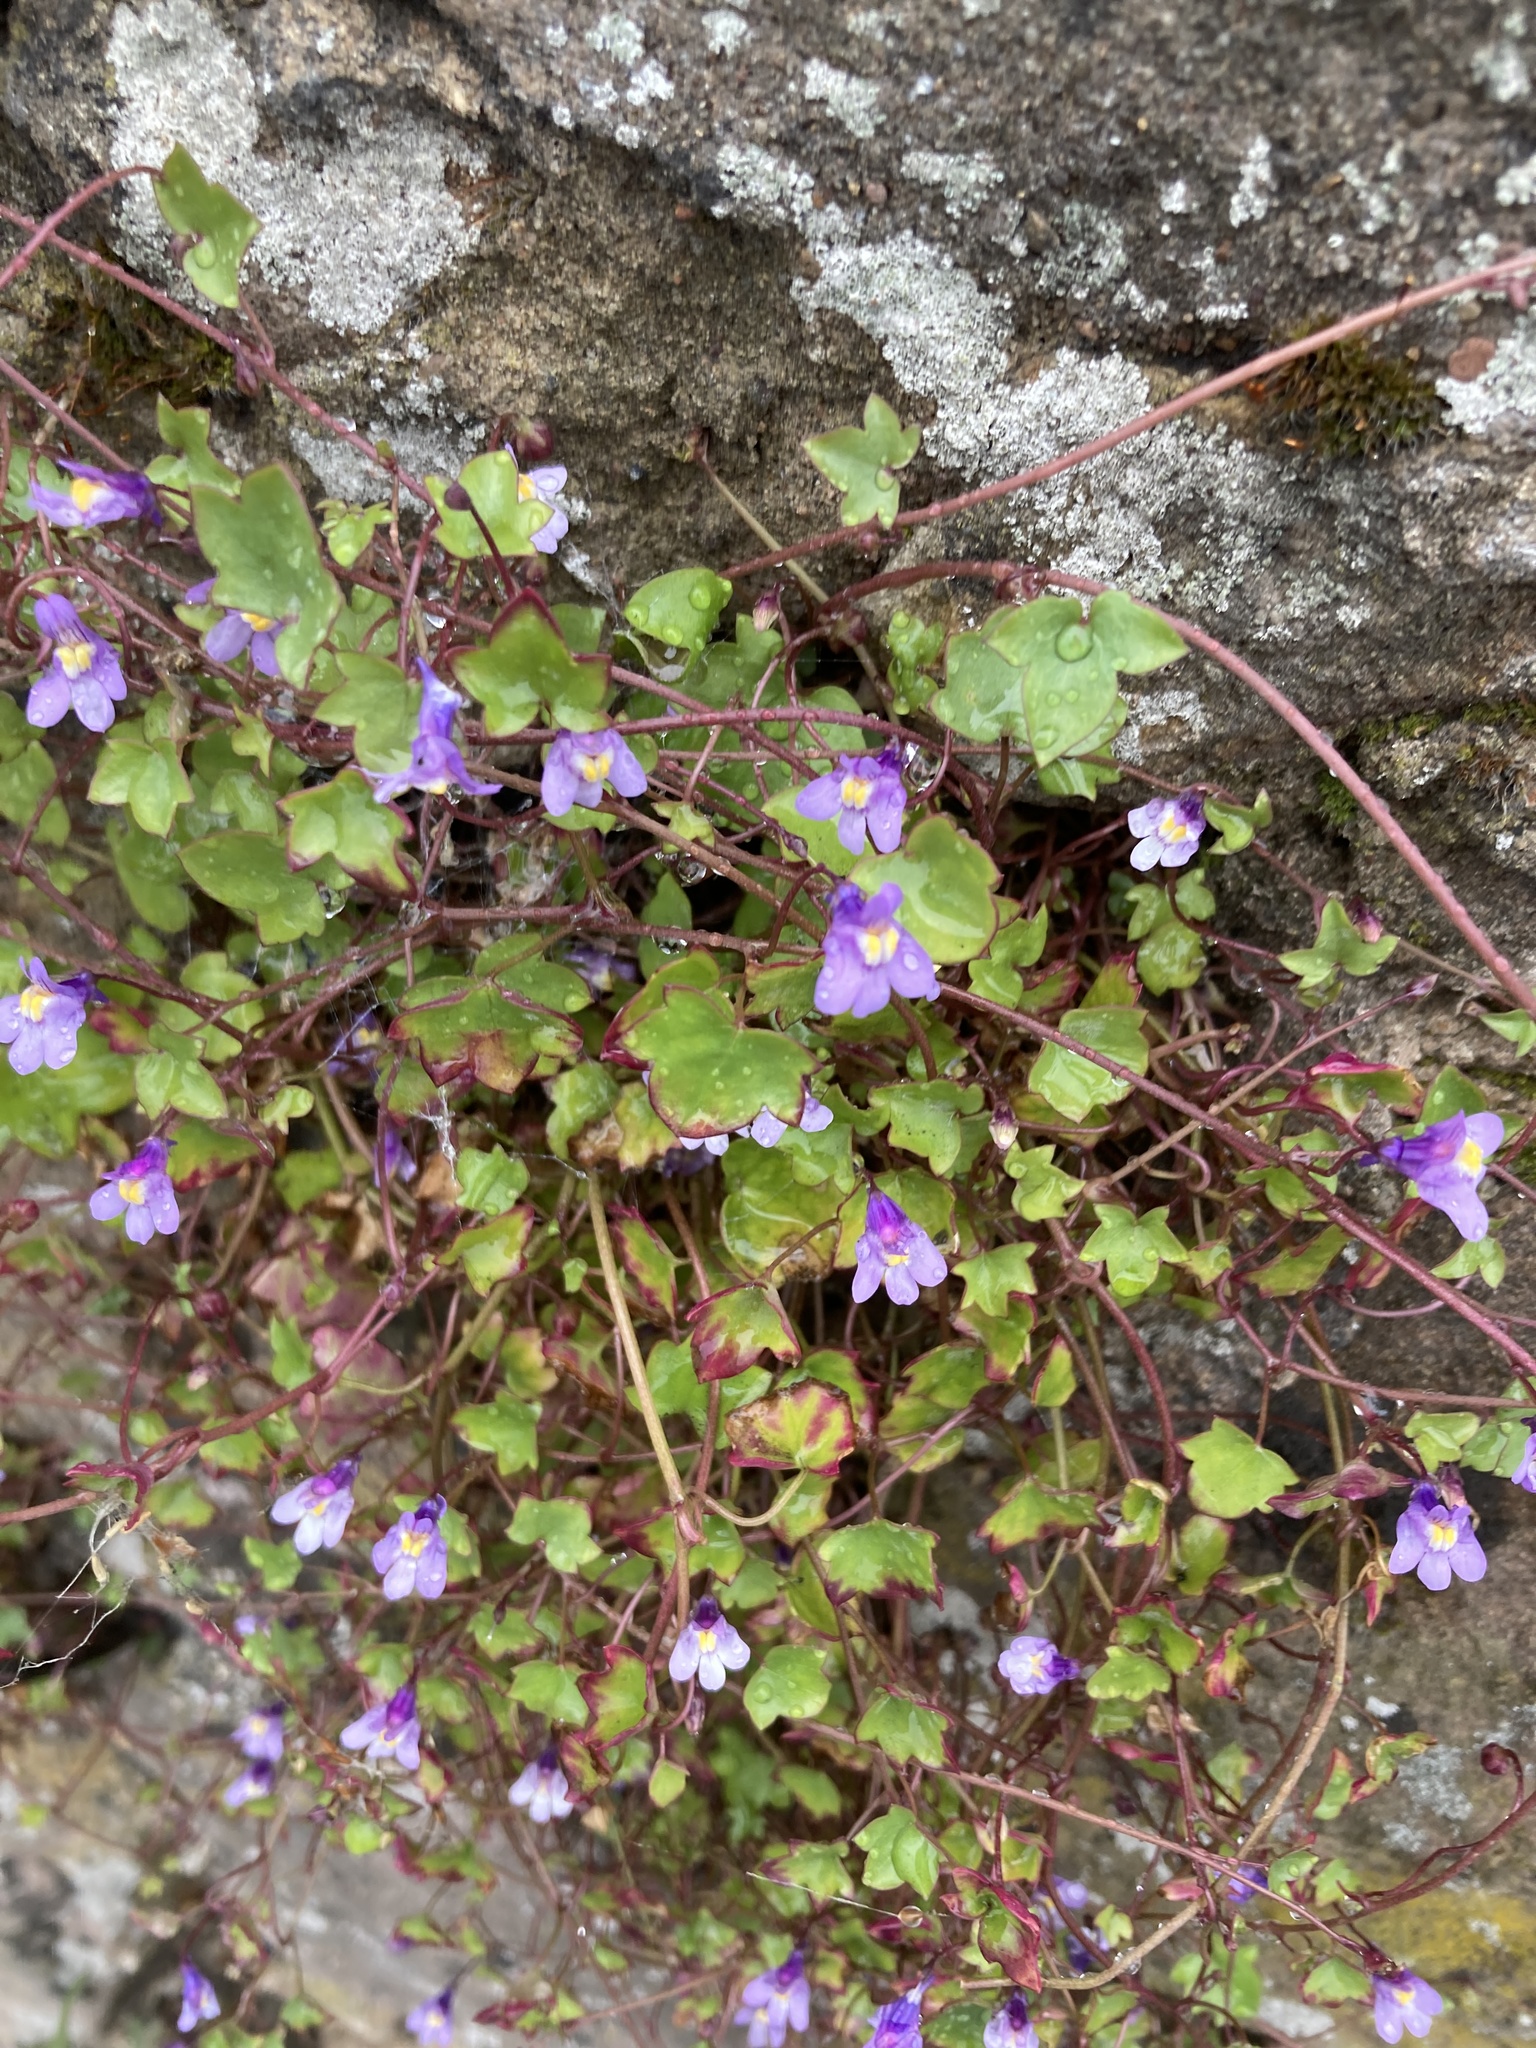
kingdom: Plantae
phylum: Tracheophyta
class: Magnoliopsida
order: Lamiales
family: Plantaginaceae
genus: Cymbalaria
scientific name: Cymbalaria muralis
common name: Ivy-leaved toadflax
